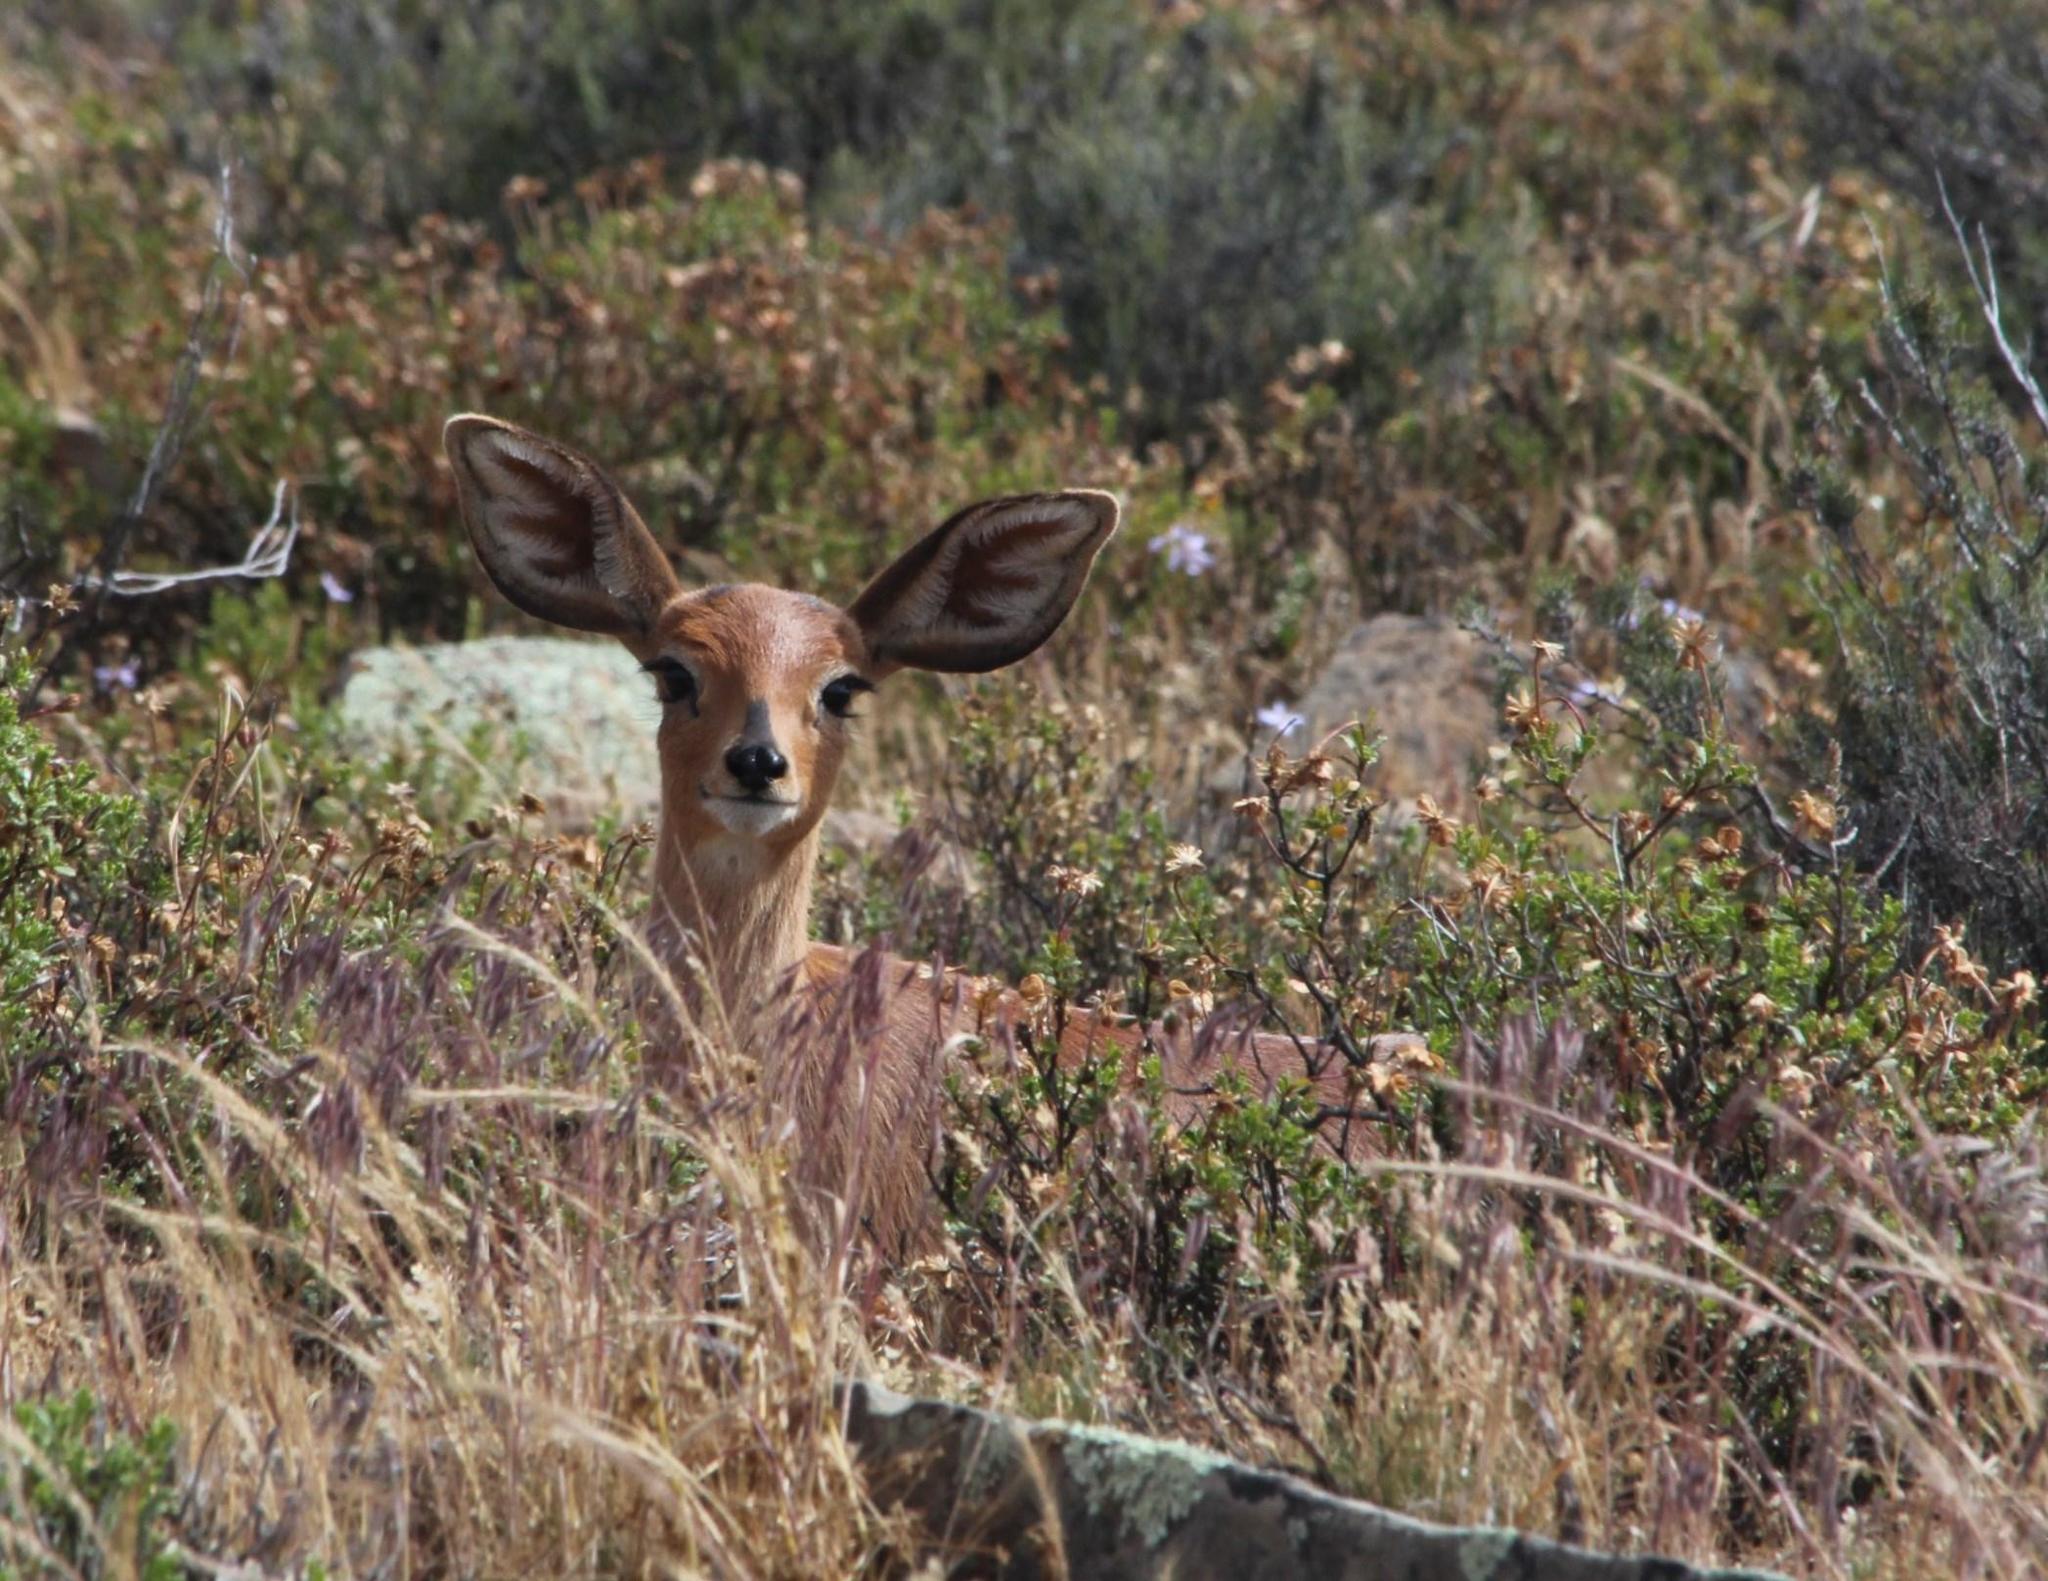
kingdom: Animalia
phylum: Chordata
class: Mammalia
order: Artiodactyla
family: Bovidae
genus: Raphicerus
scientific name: Raphicerus campestris
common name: Steenbok
